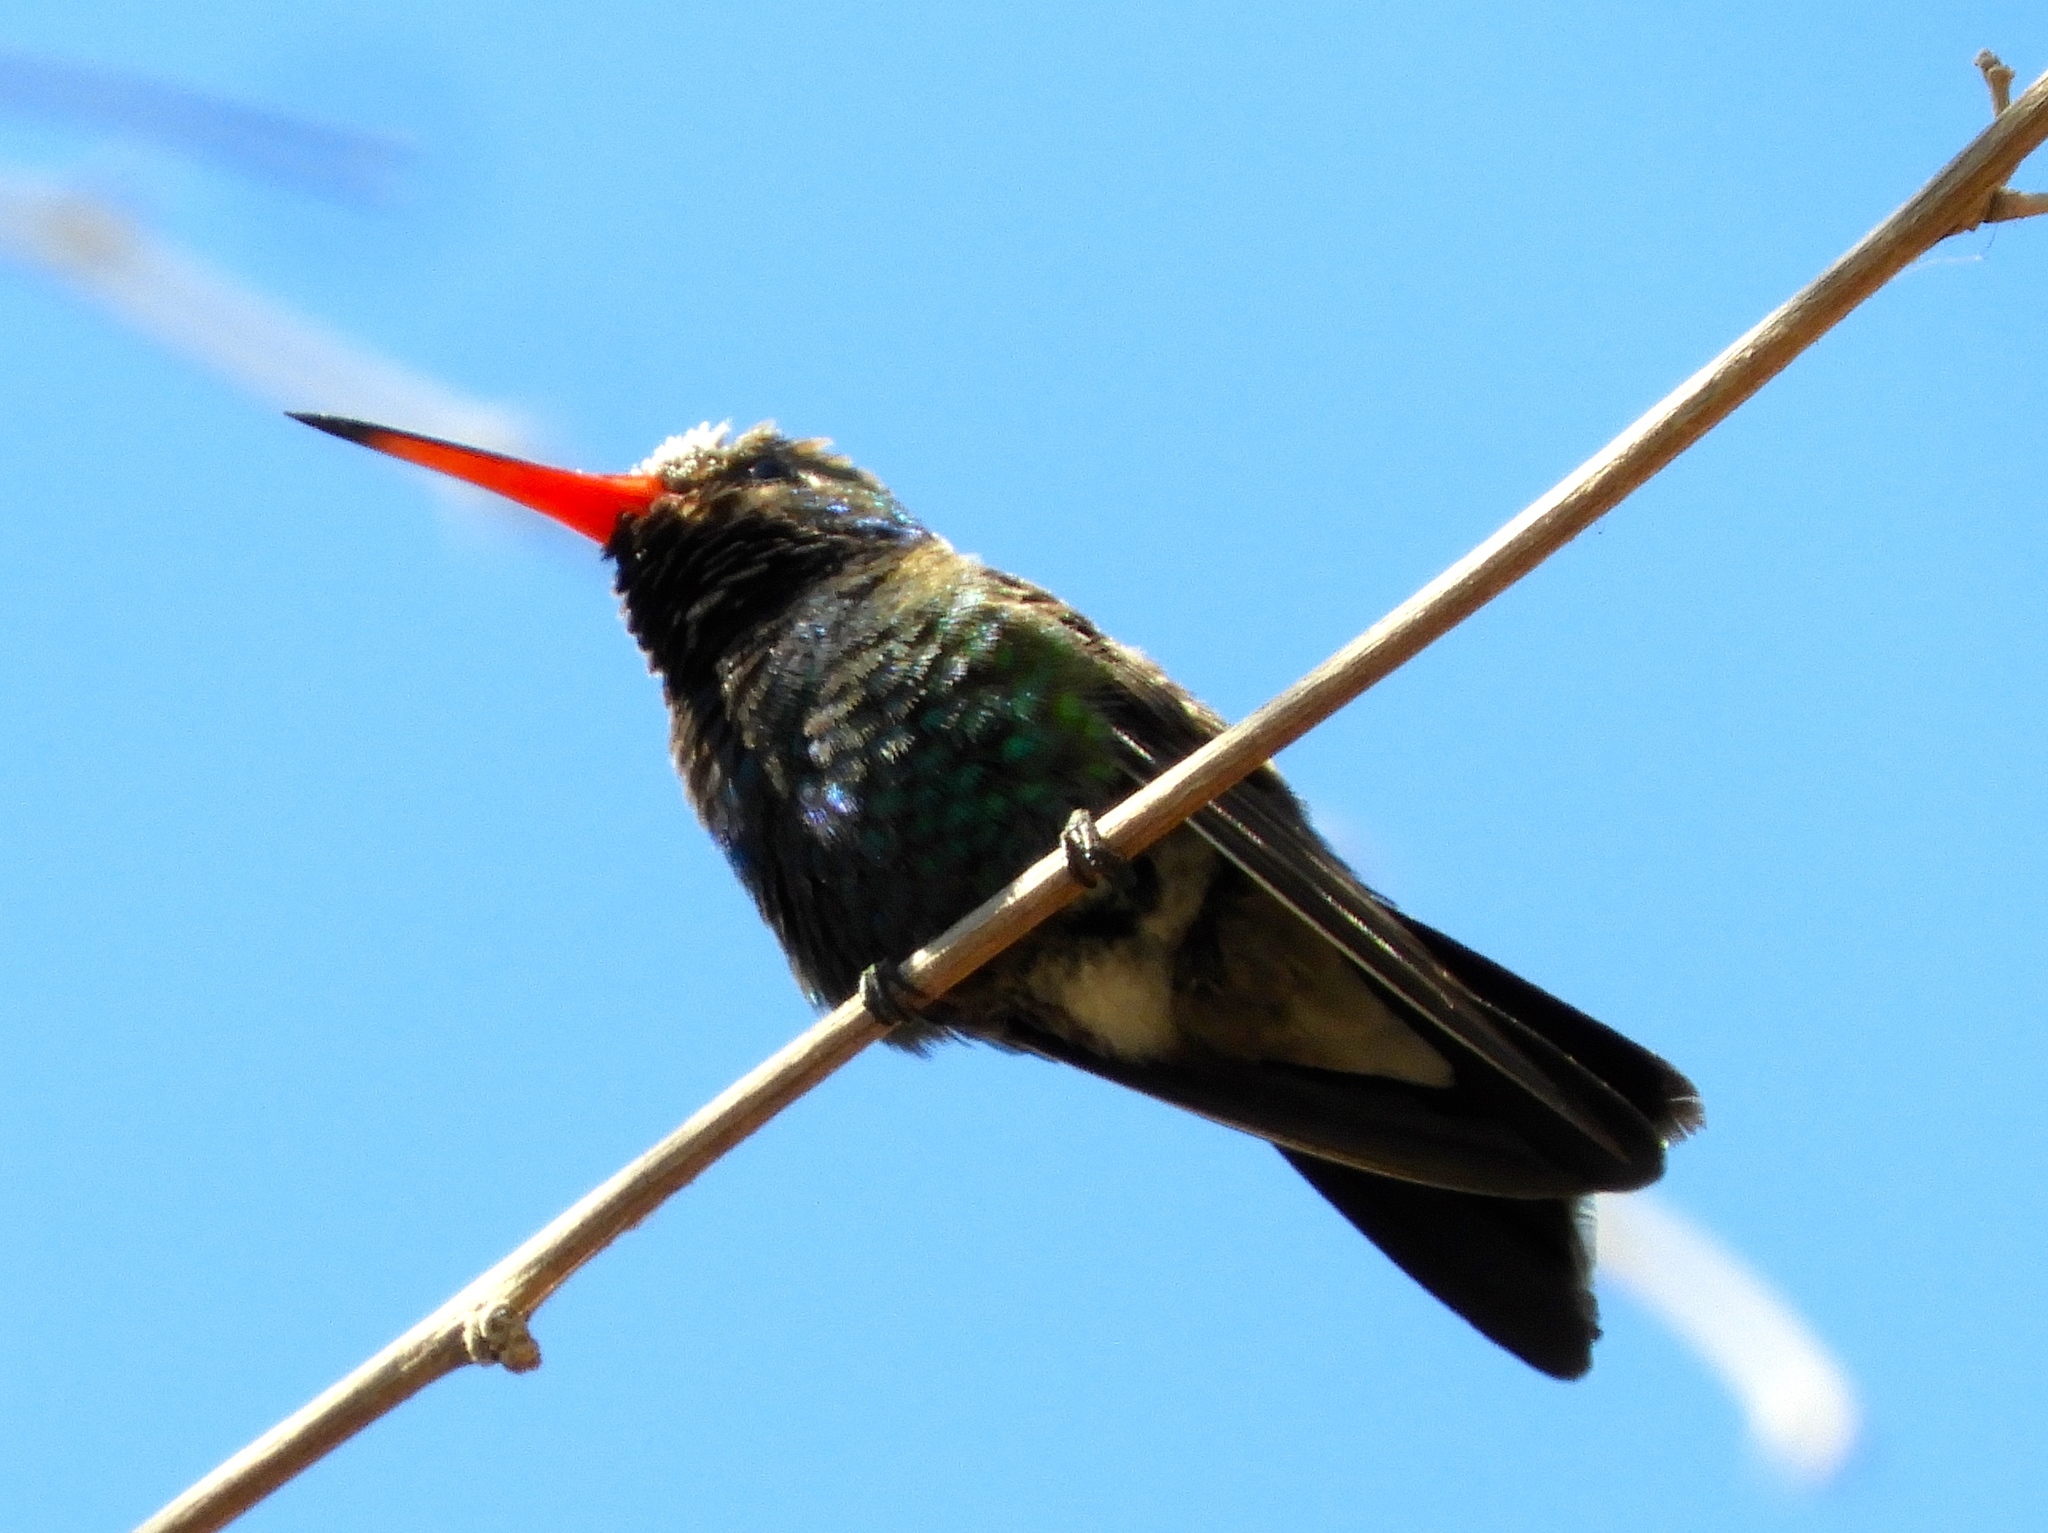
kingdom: Animalia
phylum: Chordata
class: Aves
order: Apodiformes
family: Trochilidae
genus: Cynanthus
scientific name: Cynanthus latirostris
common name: Broad-billed hummingbird
